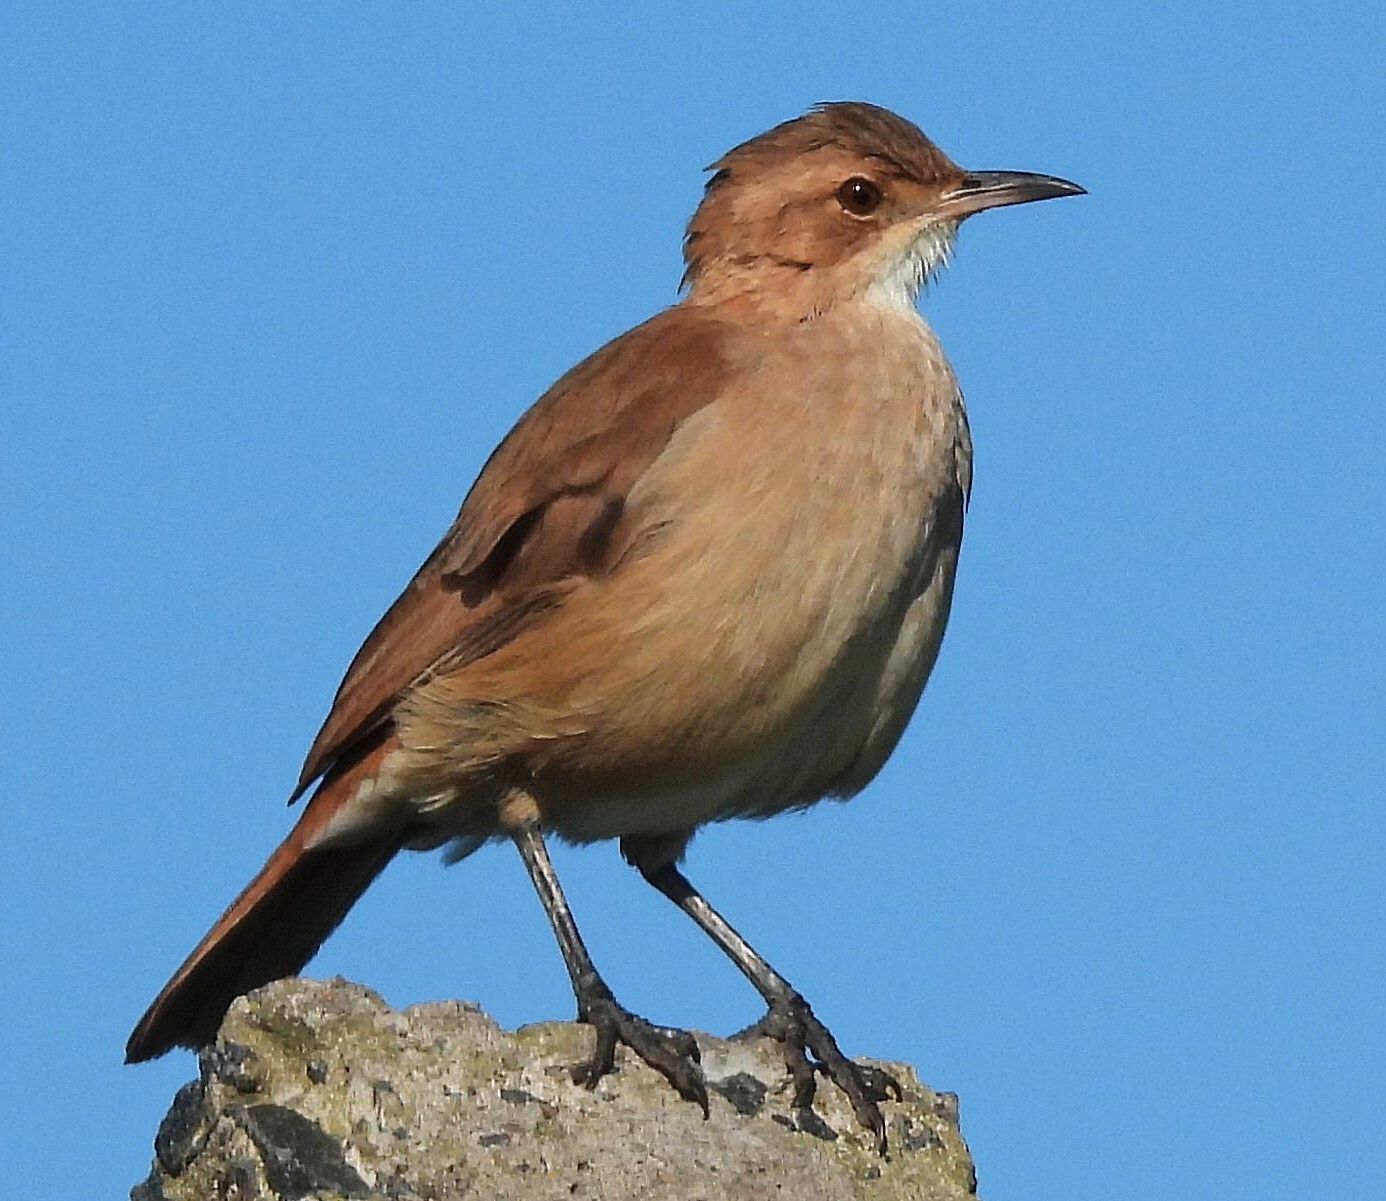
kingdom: Animalia
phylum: Chordata
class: Aves
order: Passeriformes
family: Furnariidae
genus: Furnarius
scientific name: Furnarius rufus
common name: Rufous hornero
